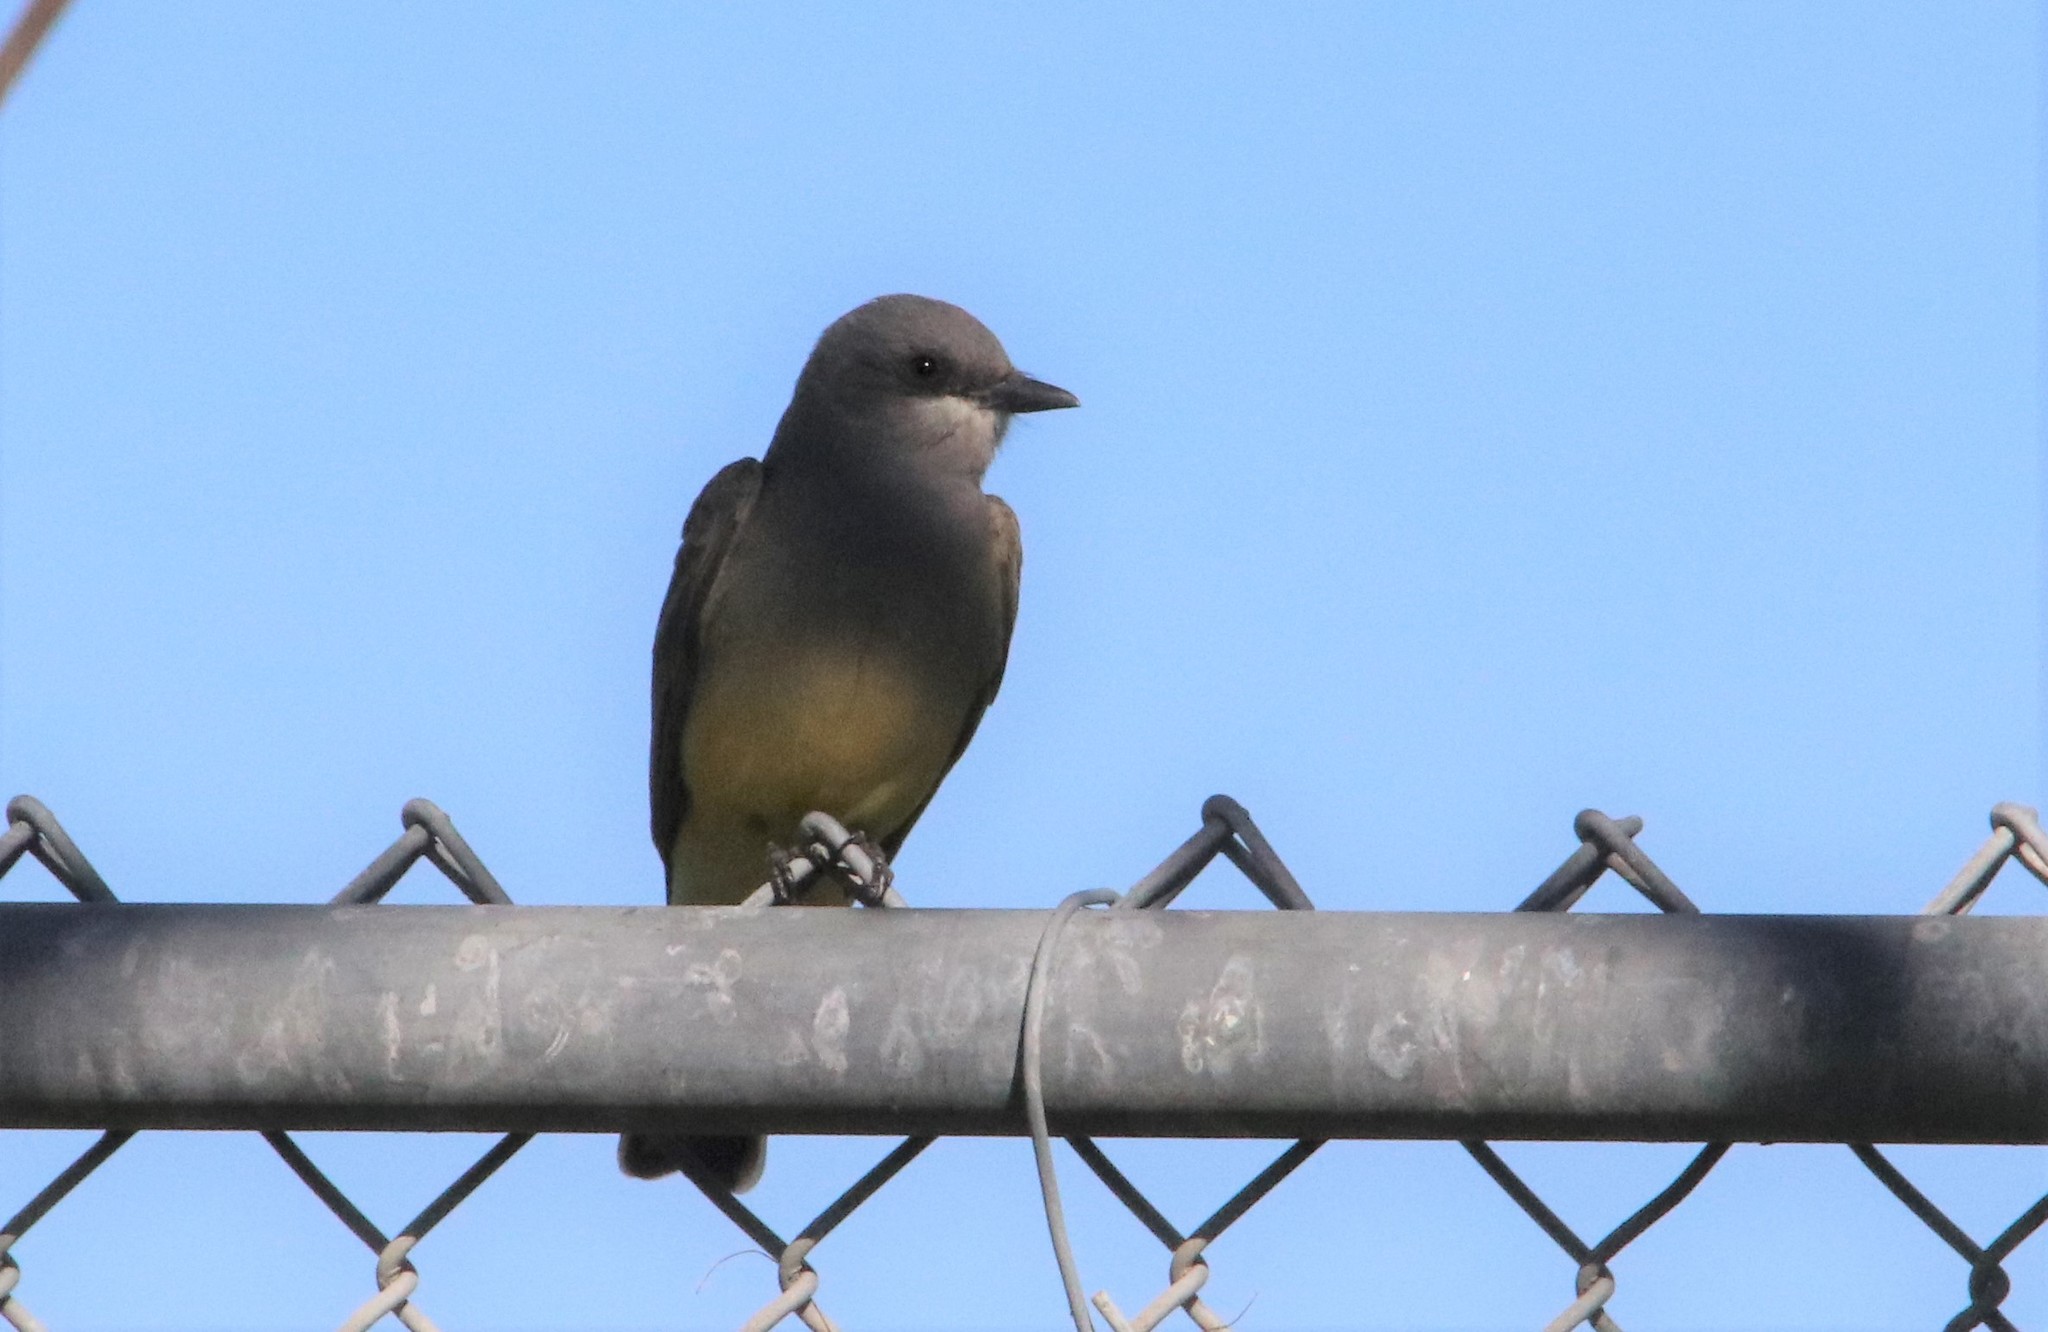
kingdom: Animalia
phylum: Chordata
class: Aves
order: Passeriformes
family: Tyrannidae
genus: Tyrannus
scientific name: Tyrannus vociferans
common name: Cassin's kingbird
